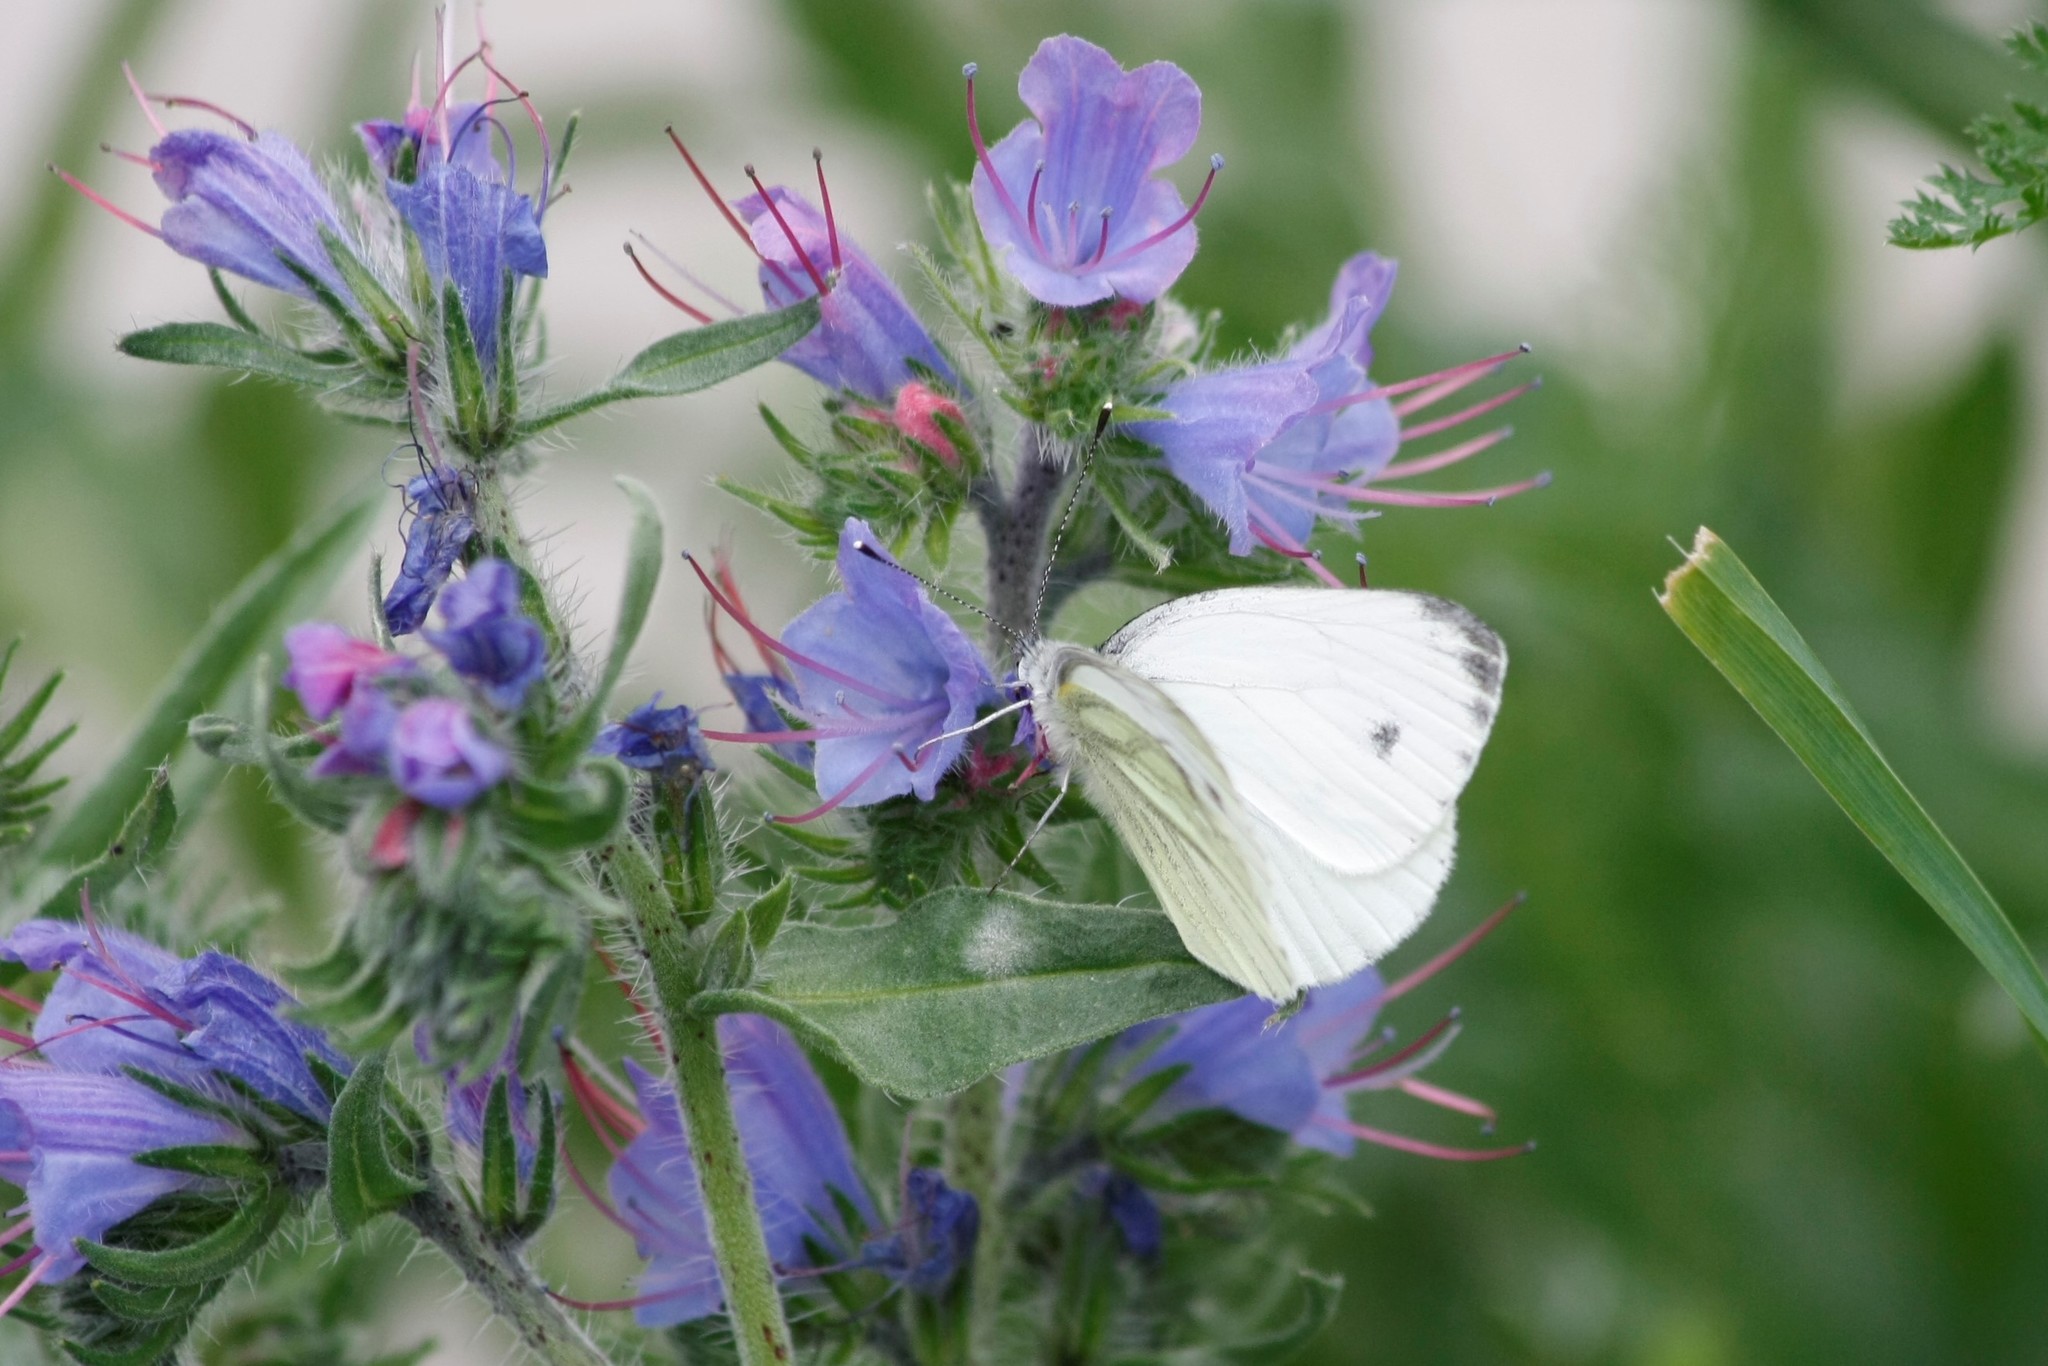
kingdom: Animalia
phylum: Arthropoda
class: Insecta
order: Lepidoptera
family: Pieridae
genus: Pieris
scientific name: Pieris napi
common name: Green-veined white
